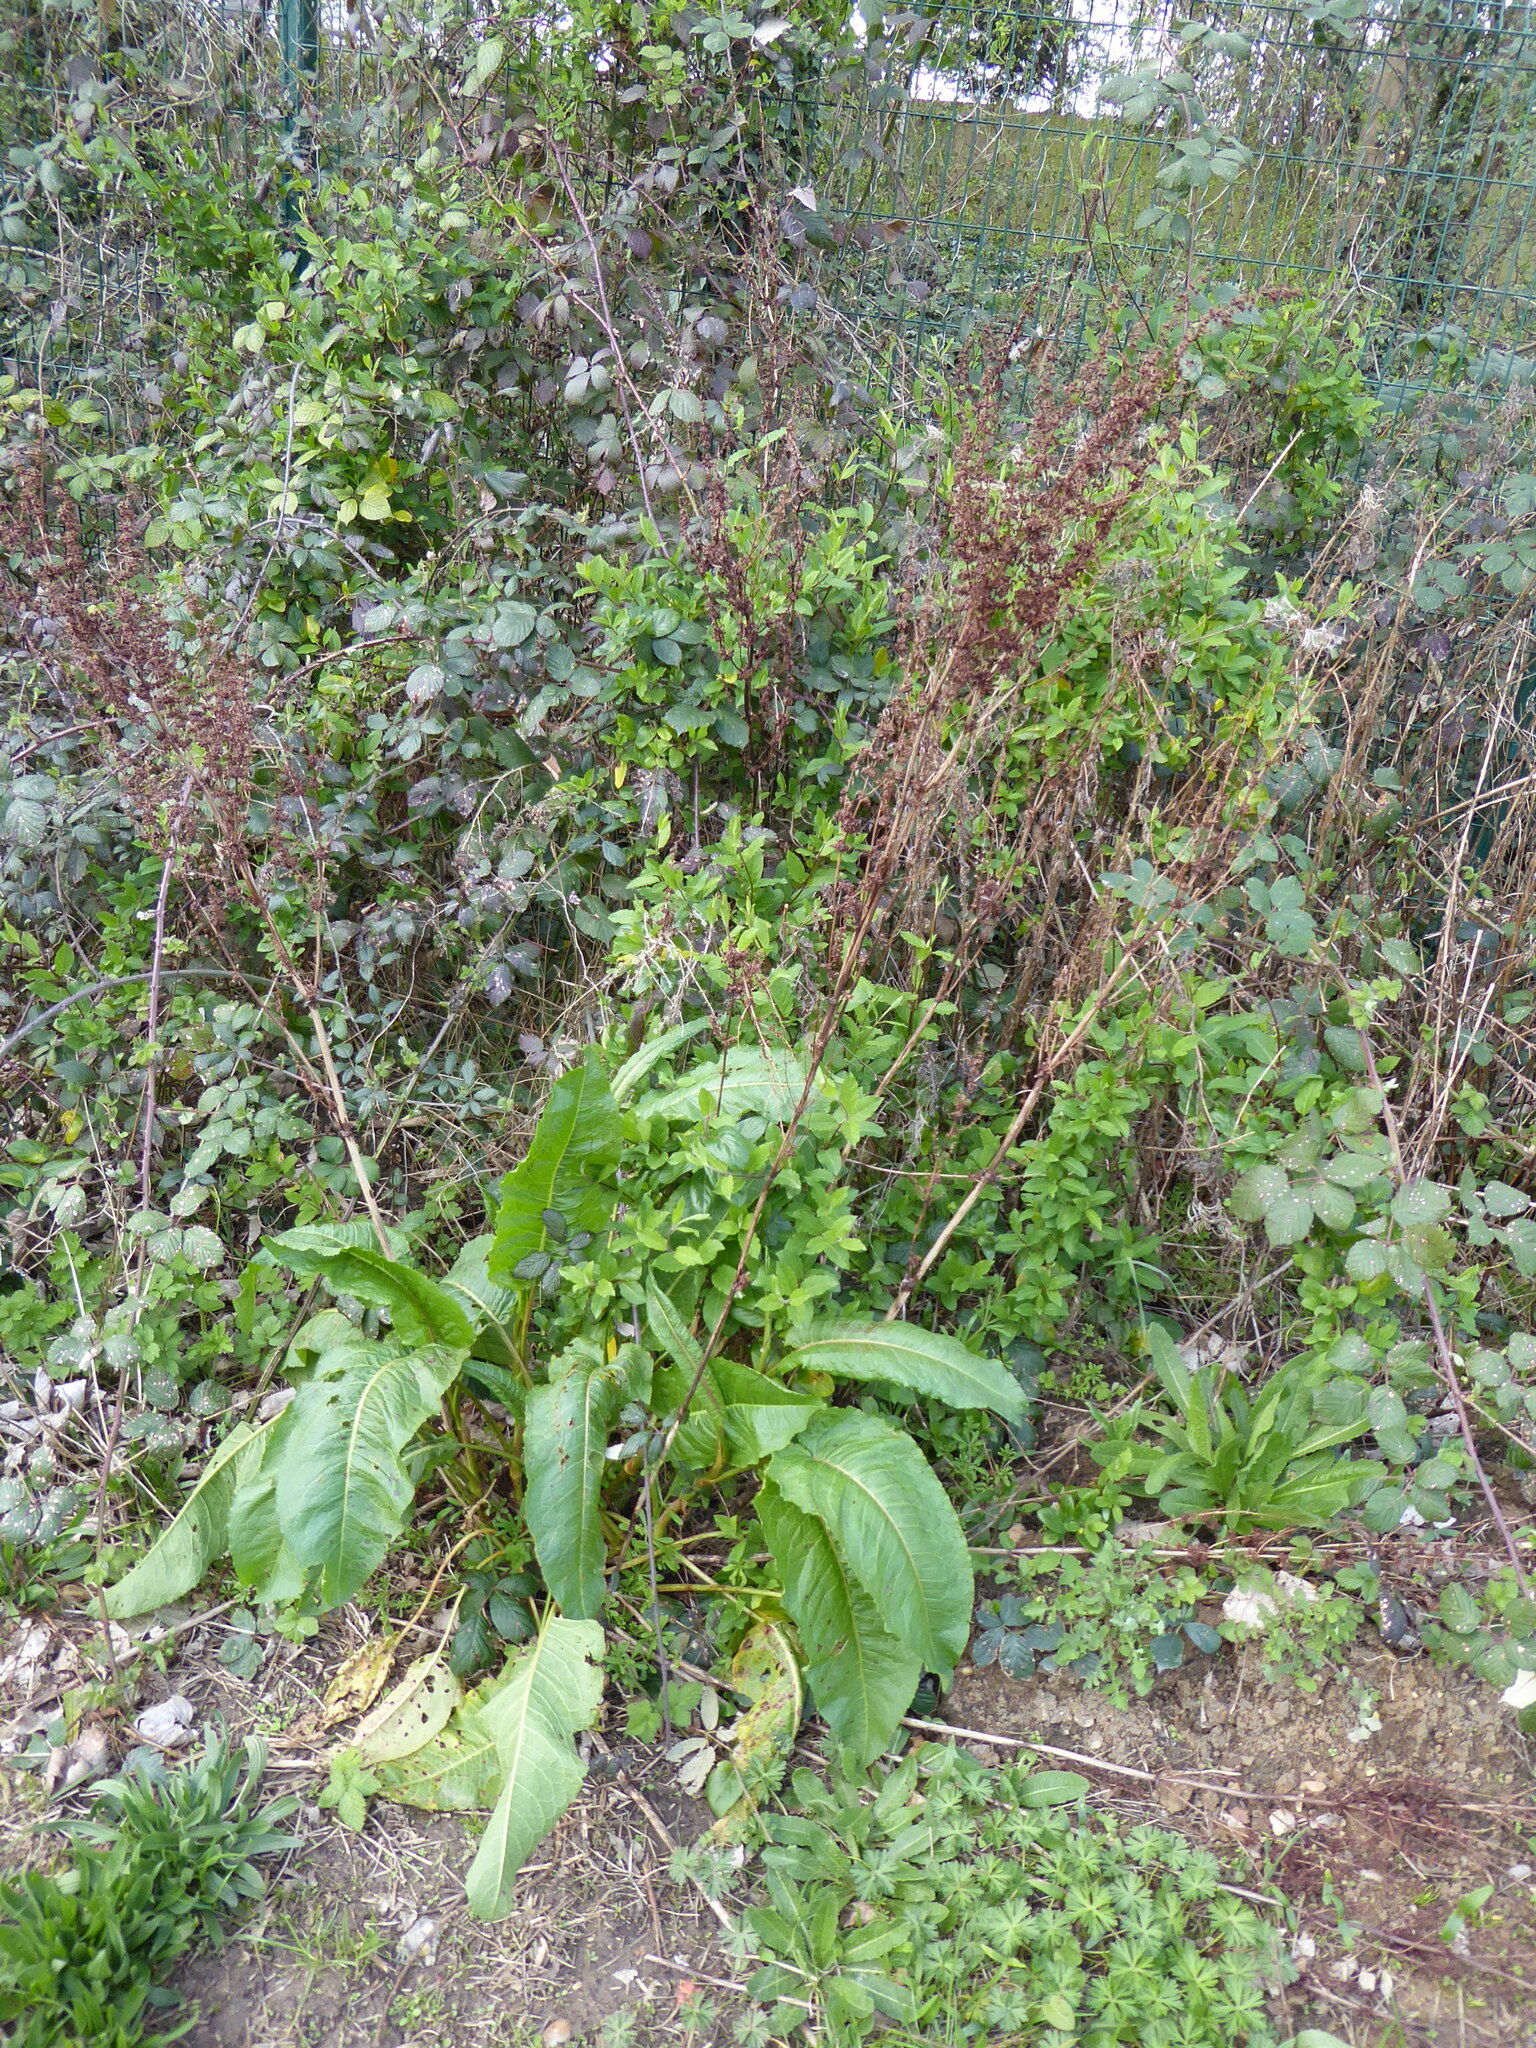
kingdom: Plantae
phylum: Tracheophyta
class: Magnoliopsida
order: Caryophyllales
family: Polygonaceae
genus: Rumex
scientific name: Rumex obtusifolius
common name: Bitter dock
